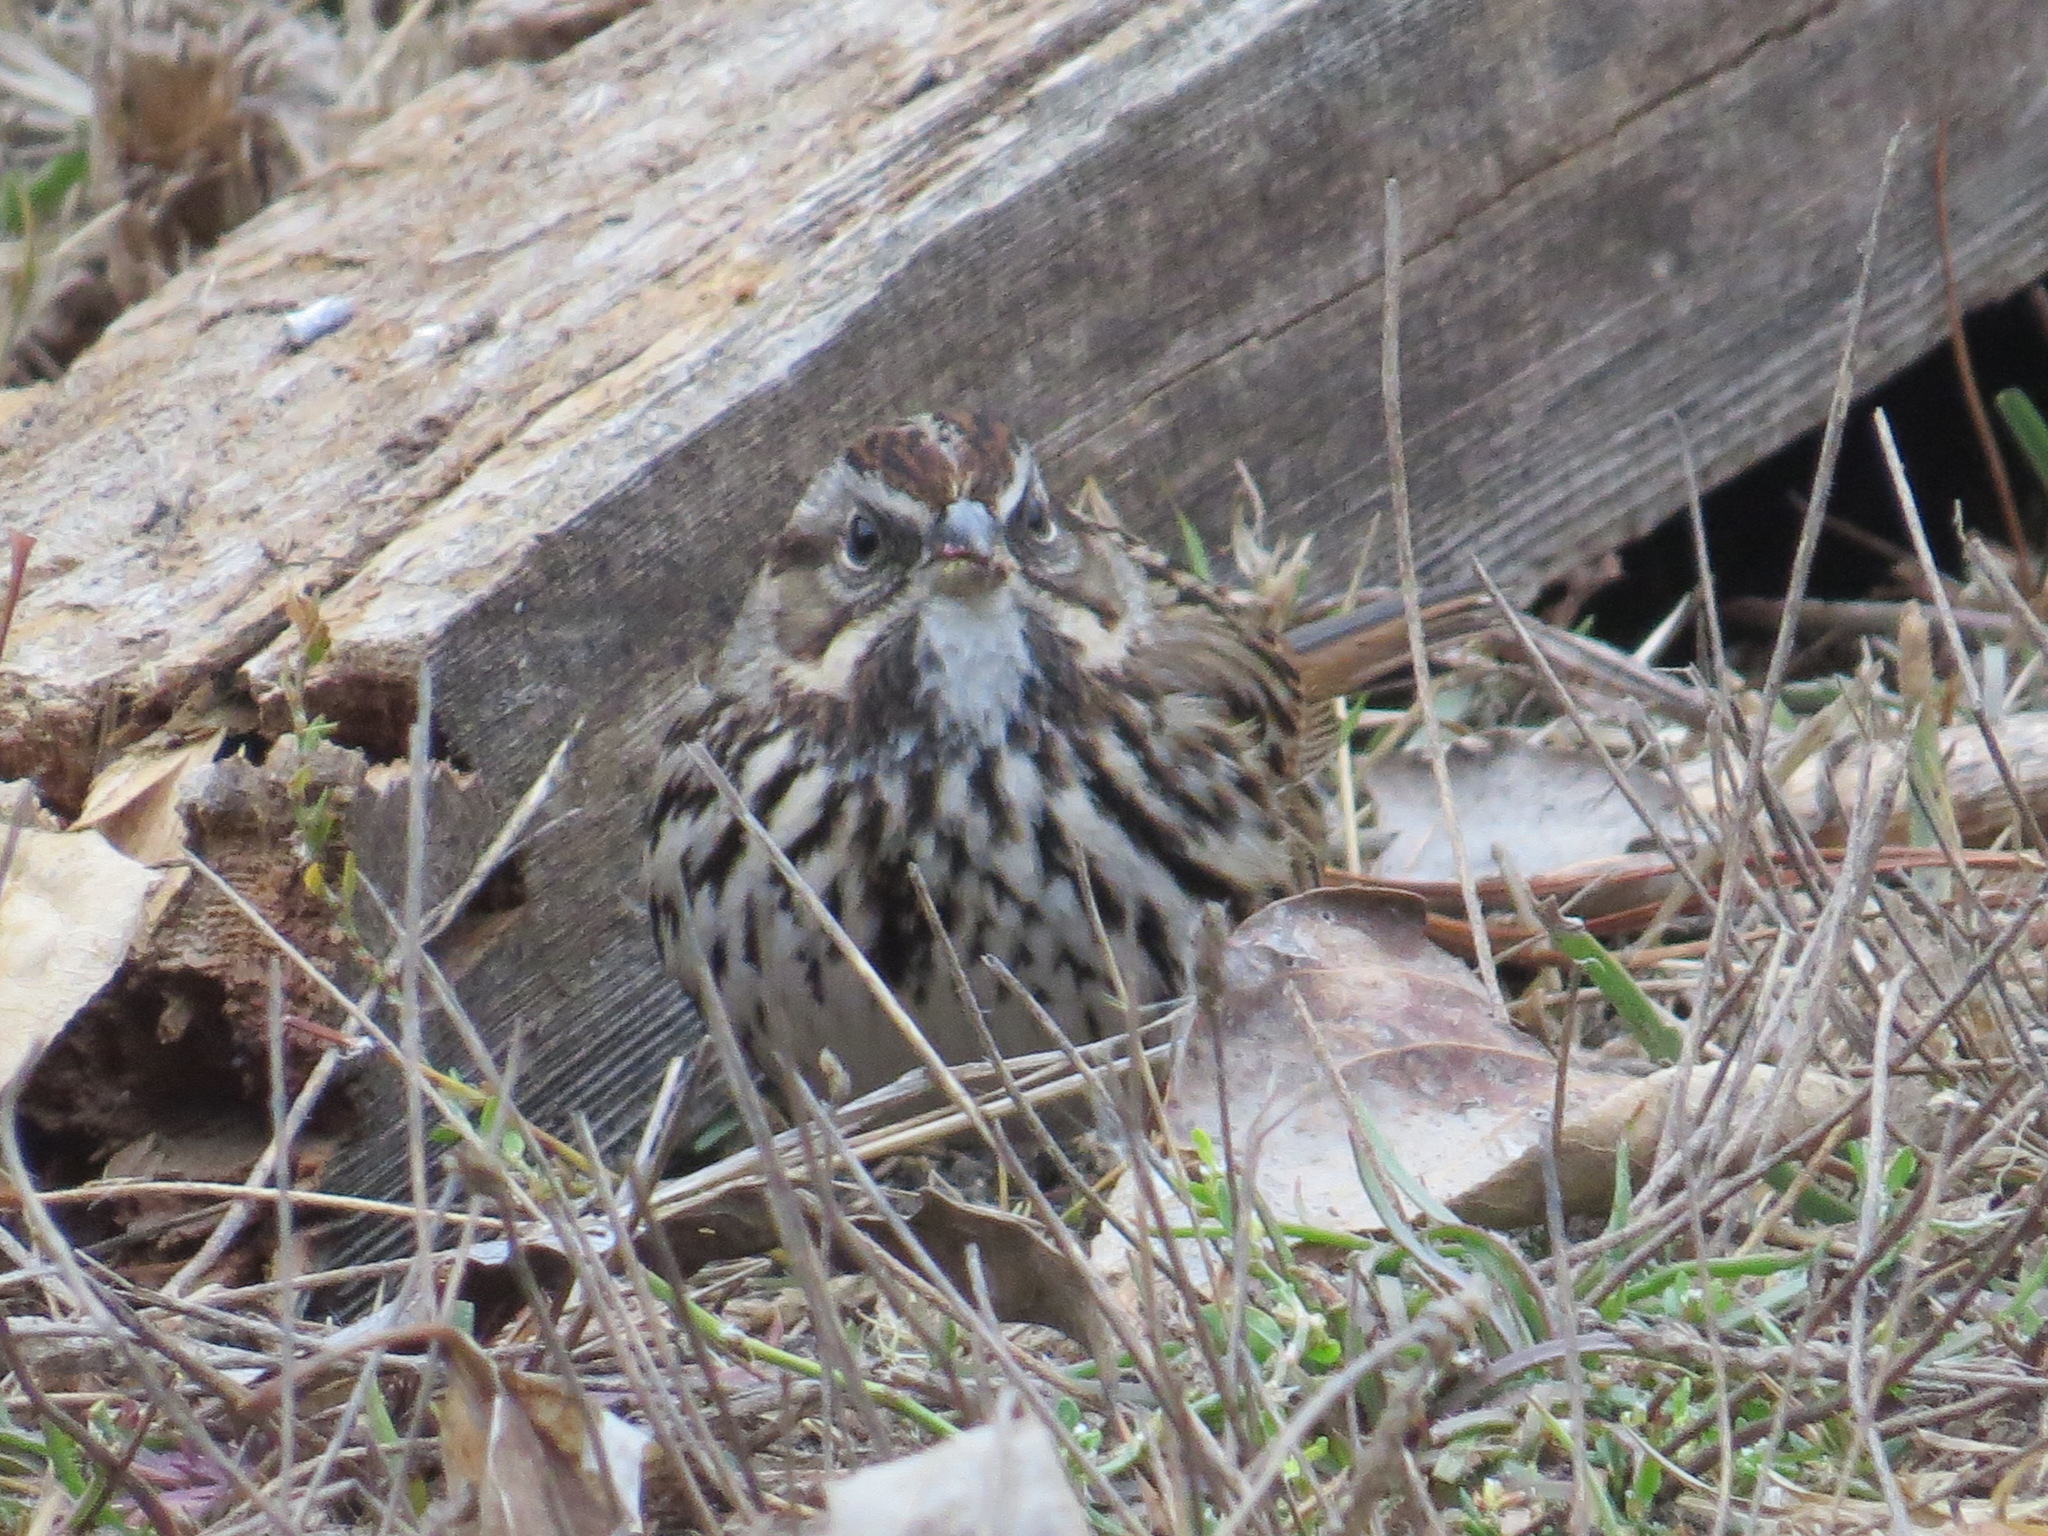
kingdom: Animalia
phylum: Chordata
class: Aves
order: Passeriformes
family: Passerellidae
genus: Melospiza
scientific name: Melospiza melodia
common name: Song sparrow
